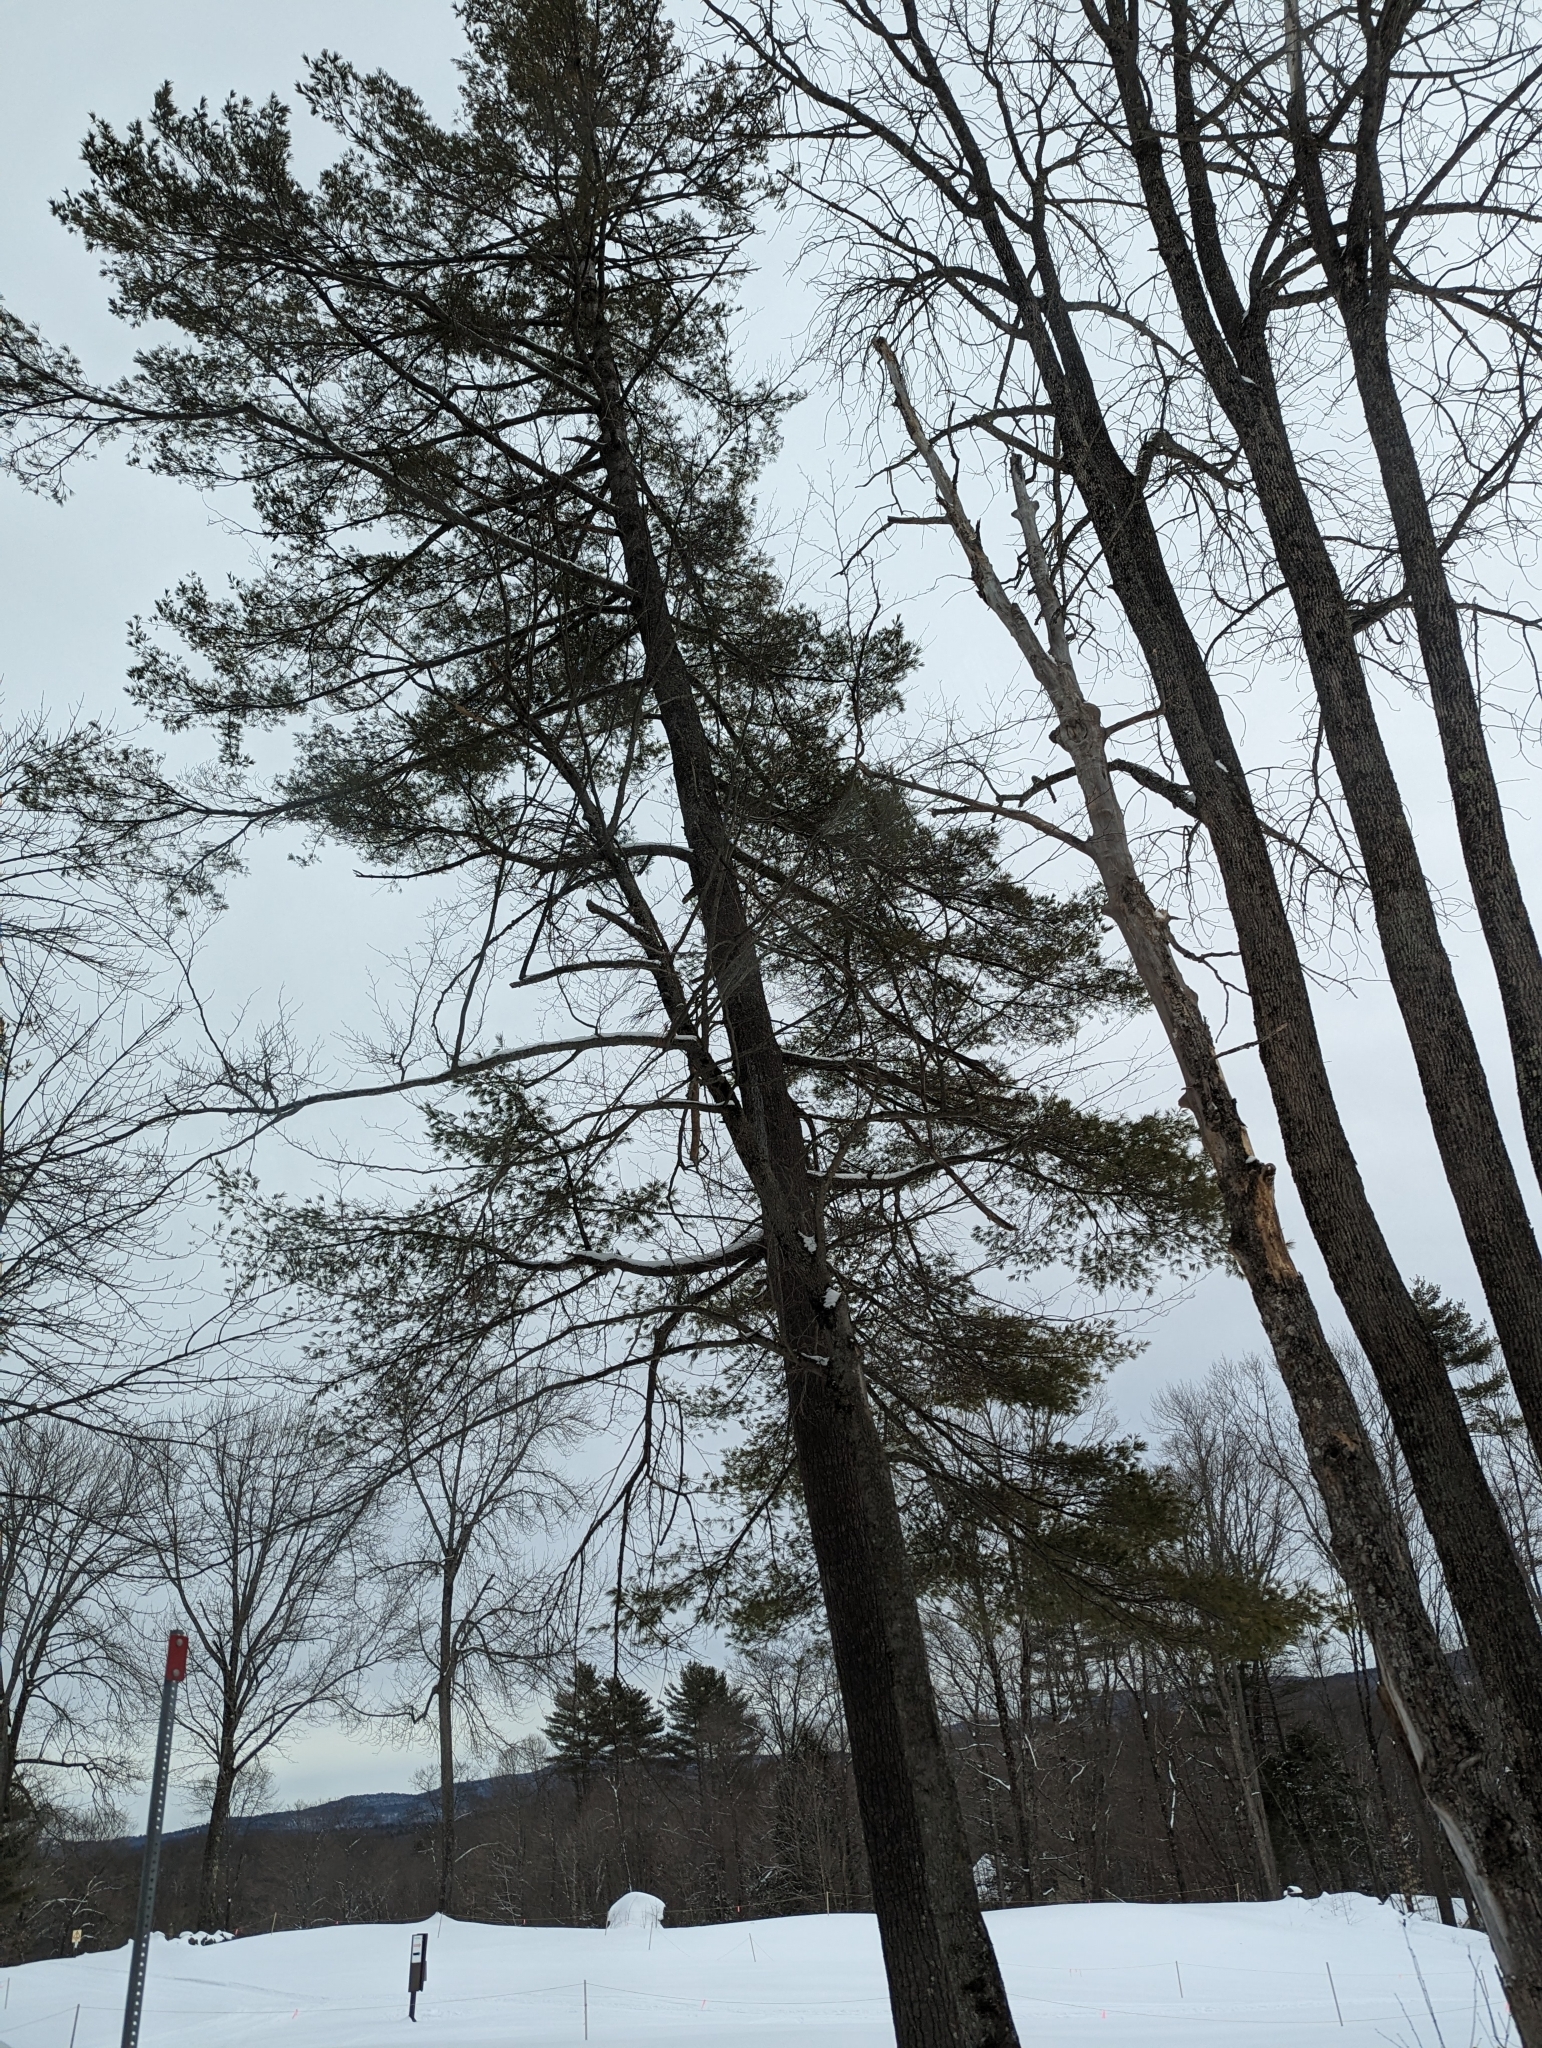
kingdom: Plantae
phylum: Tracheophyta
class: Pinopsida
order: Pinales
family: Pinaceae
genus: Pinus
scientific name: Pinus strobus
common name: Weymouth pine
